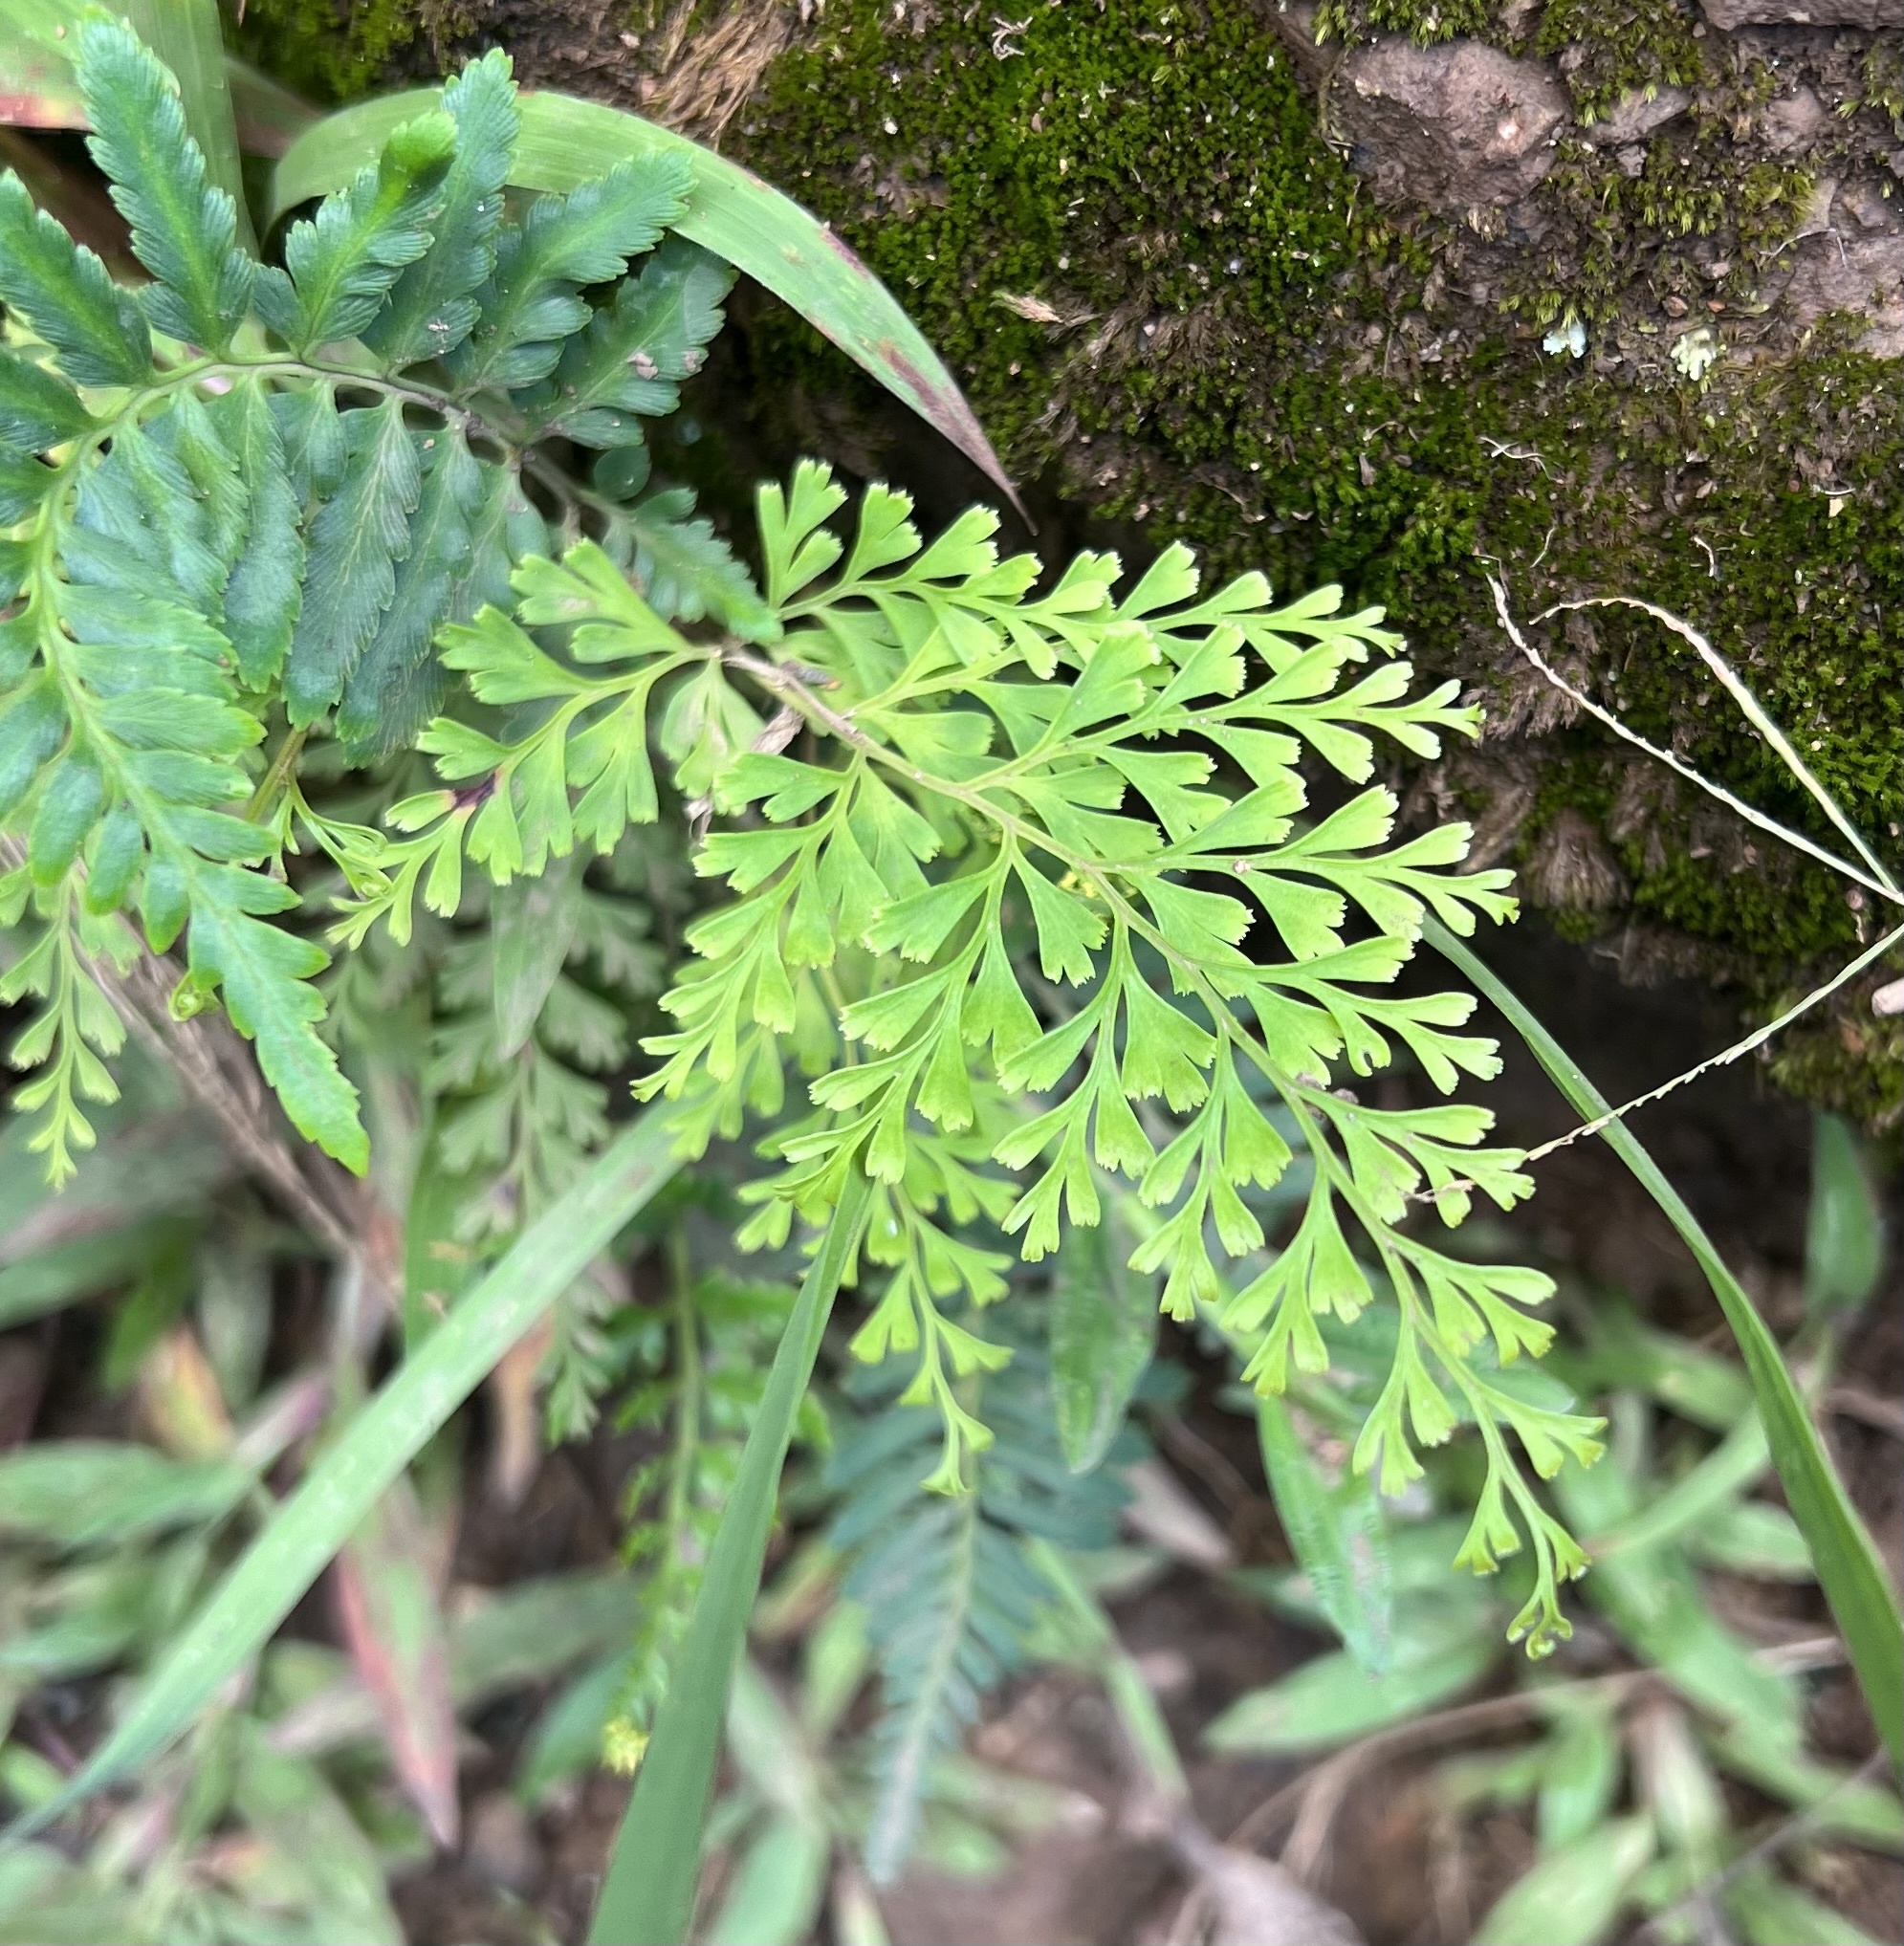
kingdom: Plantae
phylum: Tracheophyta
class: Polypodiopsida
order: Polypodiales
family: Lindsaeaceae
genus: Odontosoria
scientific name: Odontosoria chinensis
